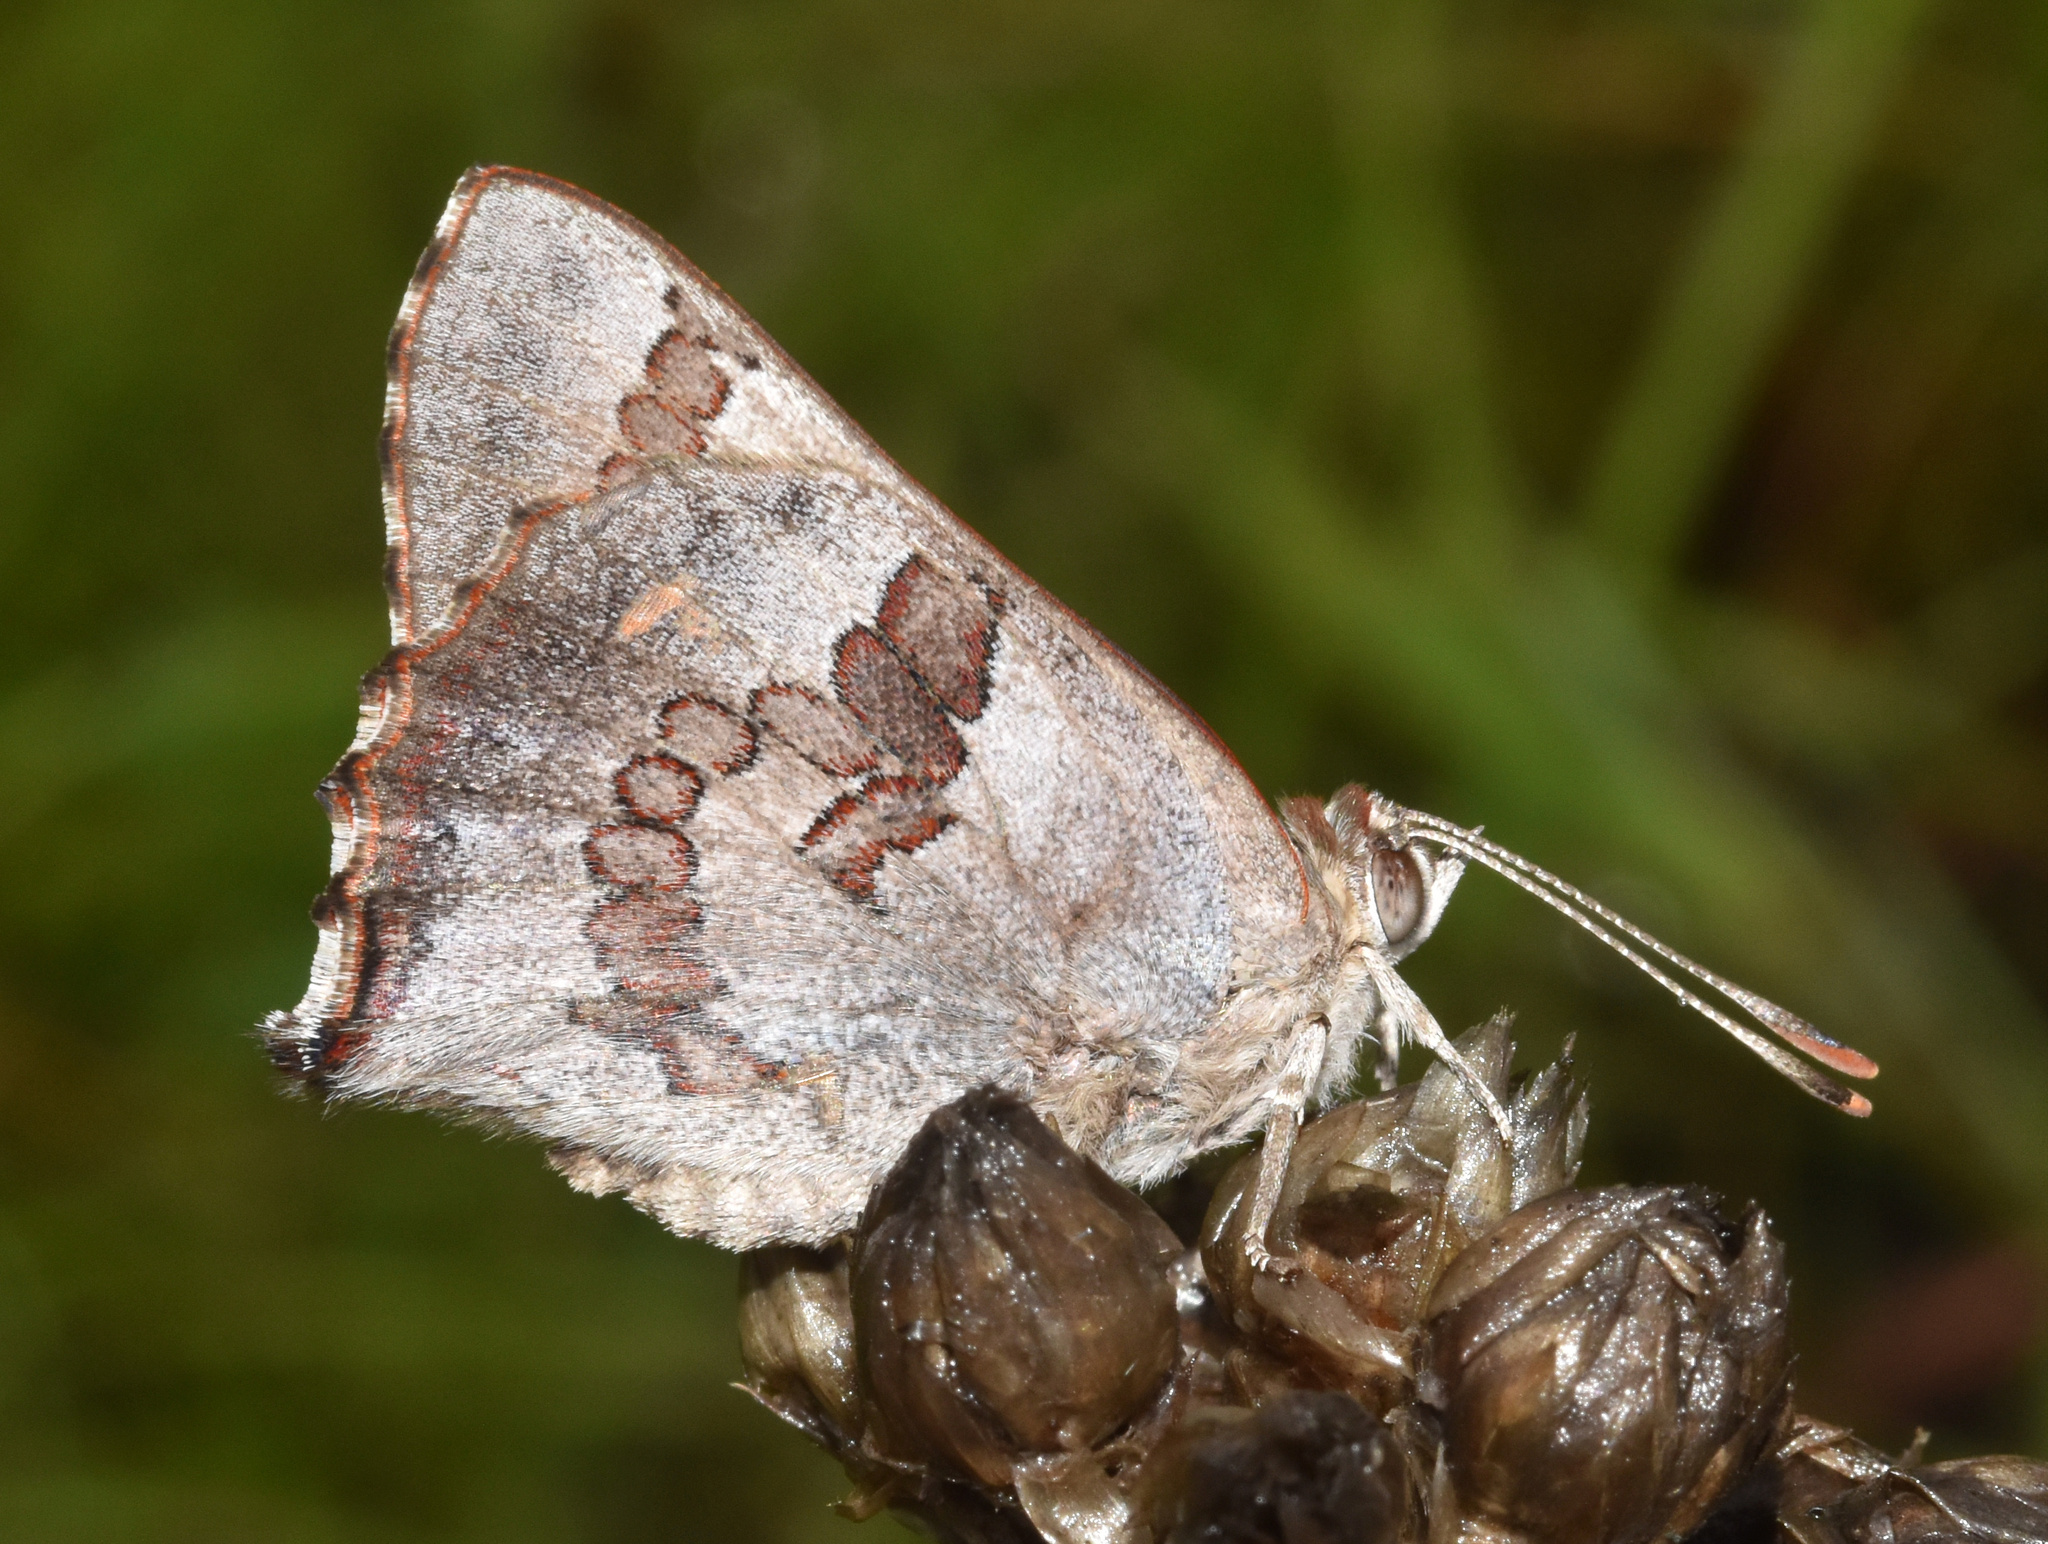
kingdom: Animalia
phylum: Arthropoda
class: Insecta
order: Lepidoptera
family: Lycaenidae
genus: Capys
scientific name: Capys disjunctus
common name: Russet protea
